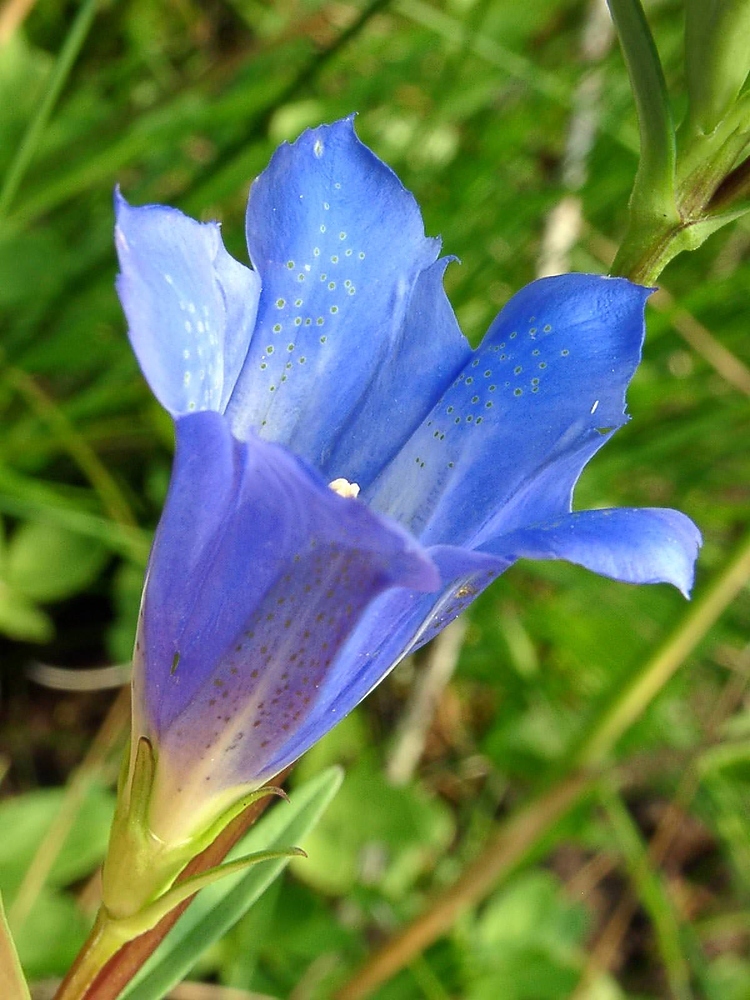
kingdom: Plantae
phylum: Tracheophyta
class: Magnoliopsida
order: Gentianales
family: Gentianaceae
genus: Gentiana
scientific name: Gentiana pneumonanthe
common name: Marsh gentian
